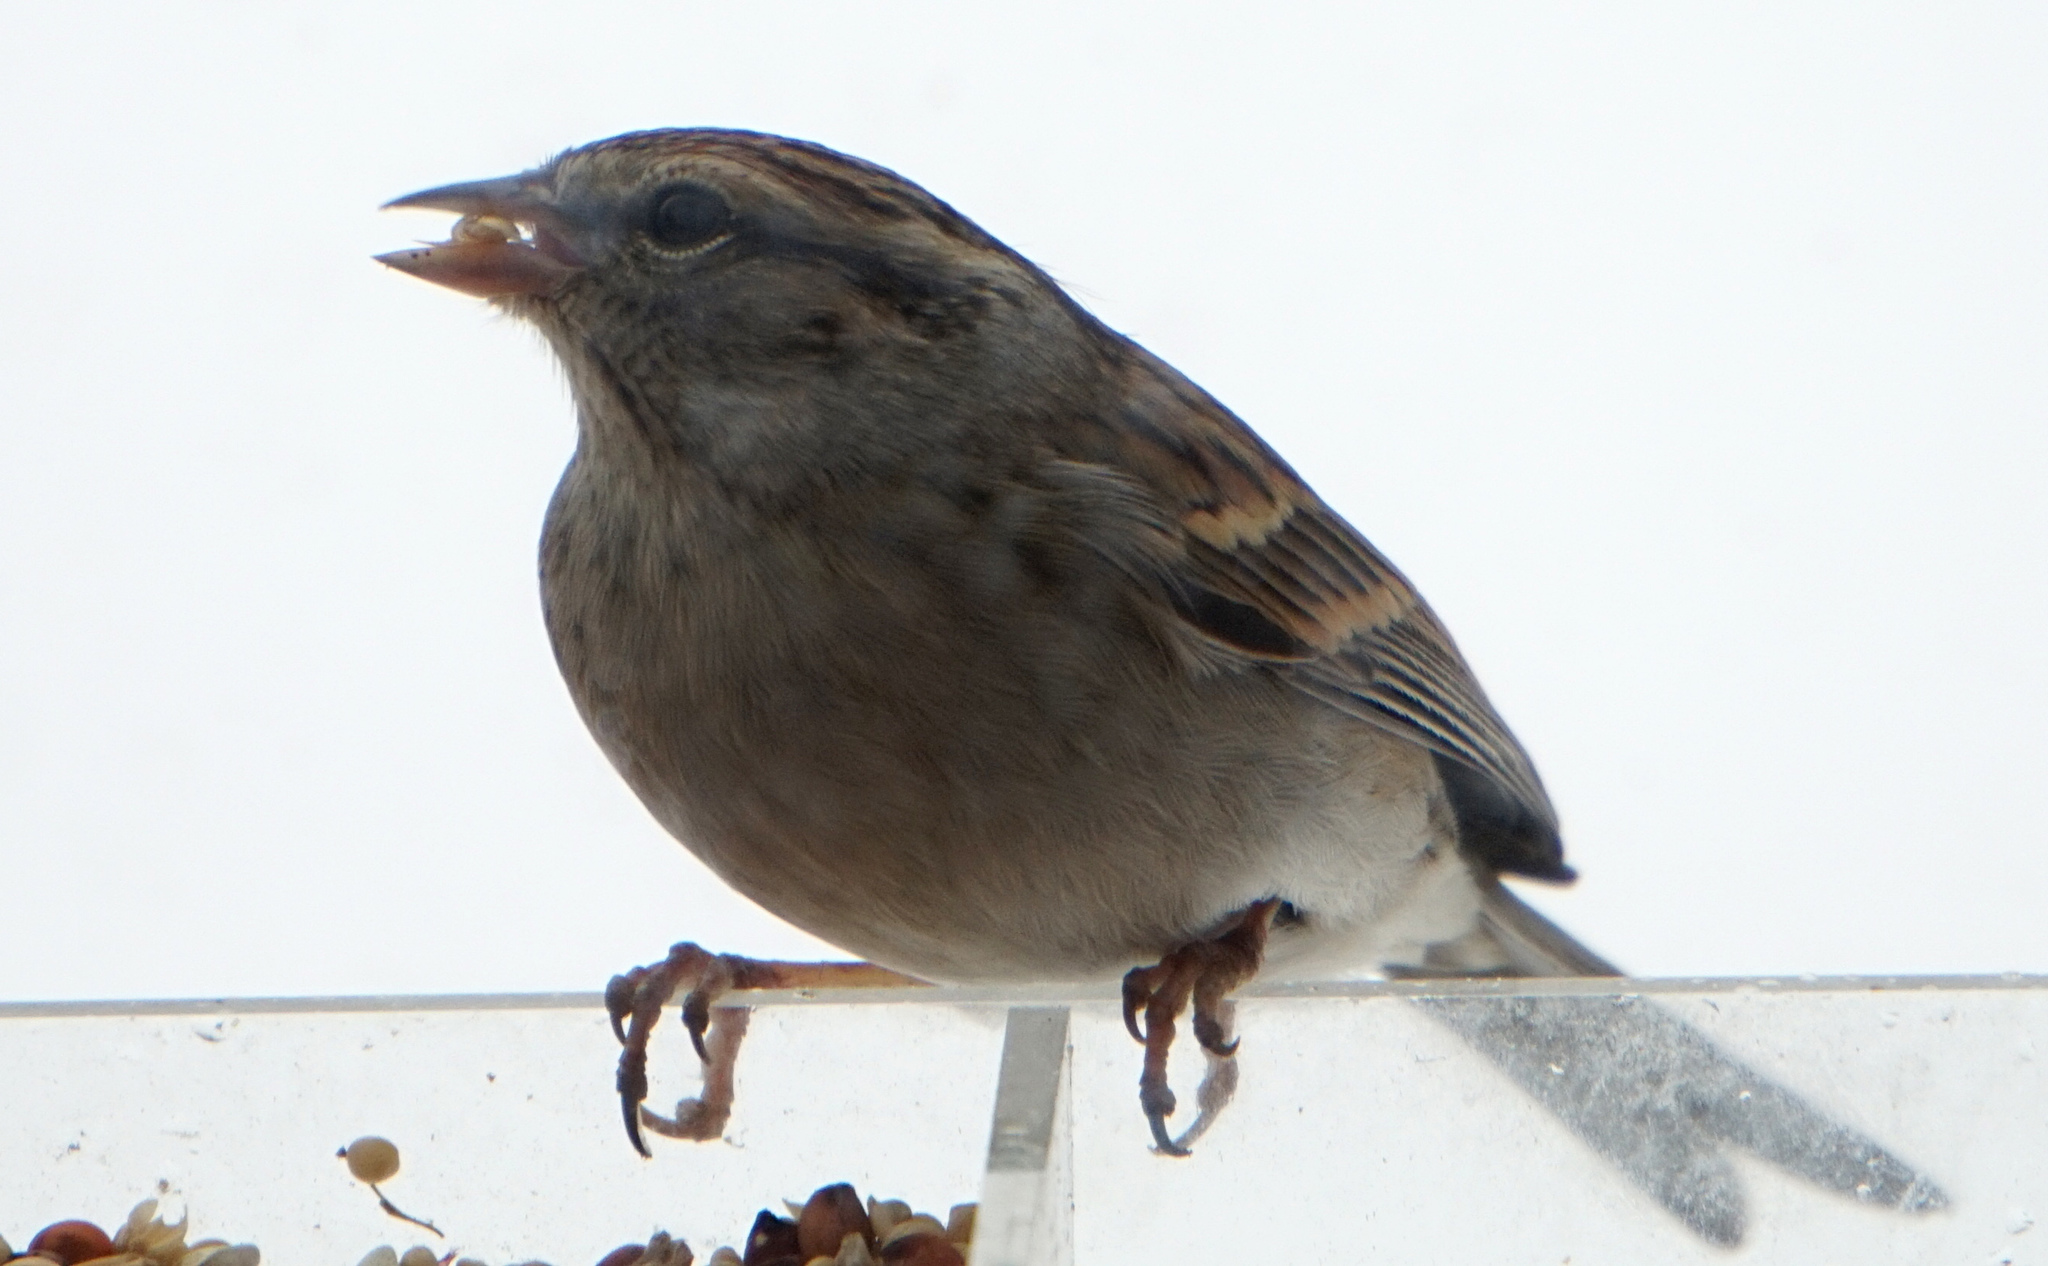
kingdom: Animalia
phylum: Chordata
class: Aves
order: Passeriformes
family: Passerellidae
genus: Spizella
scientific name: Spizella passerina
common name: Chipping sparrow
